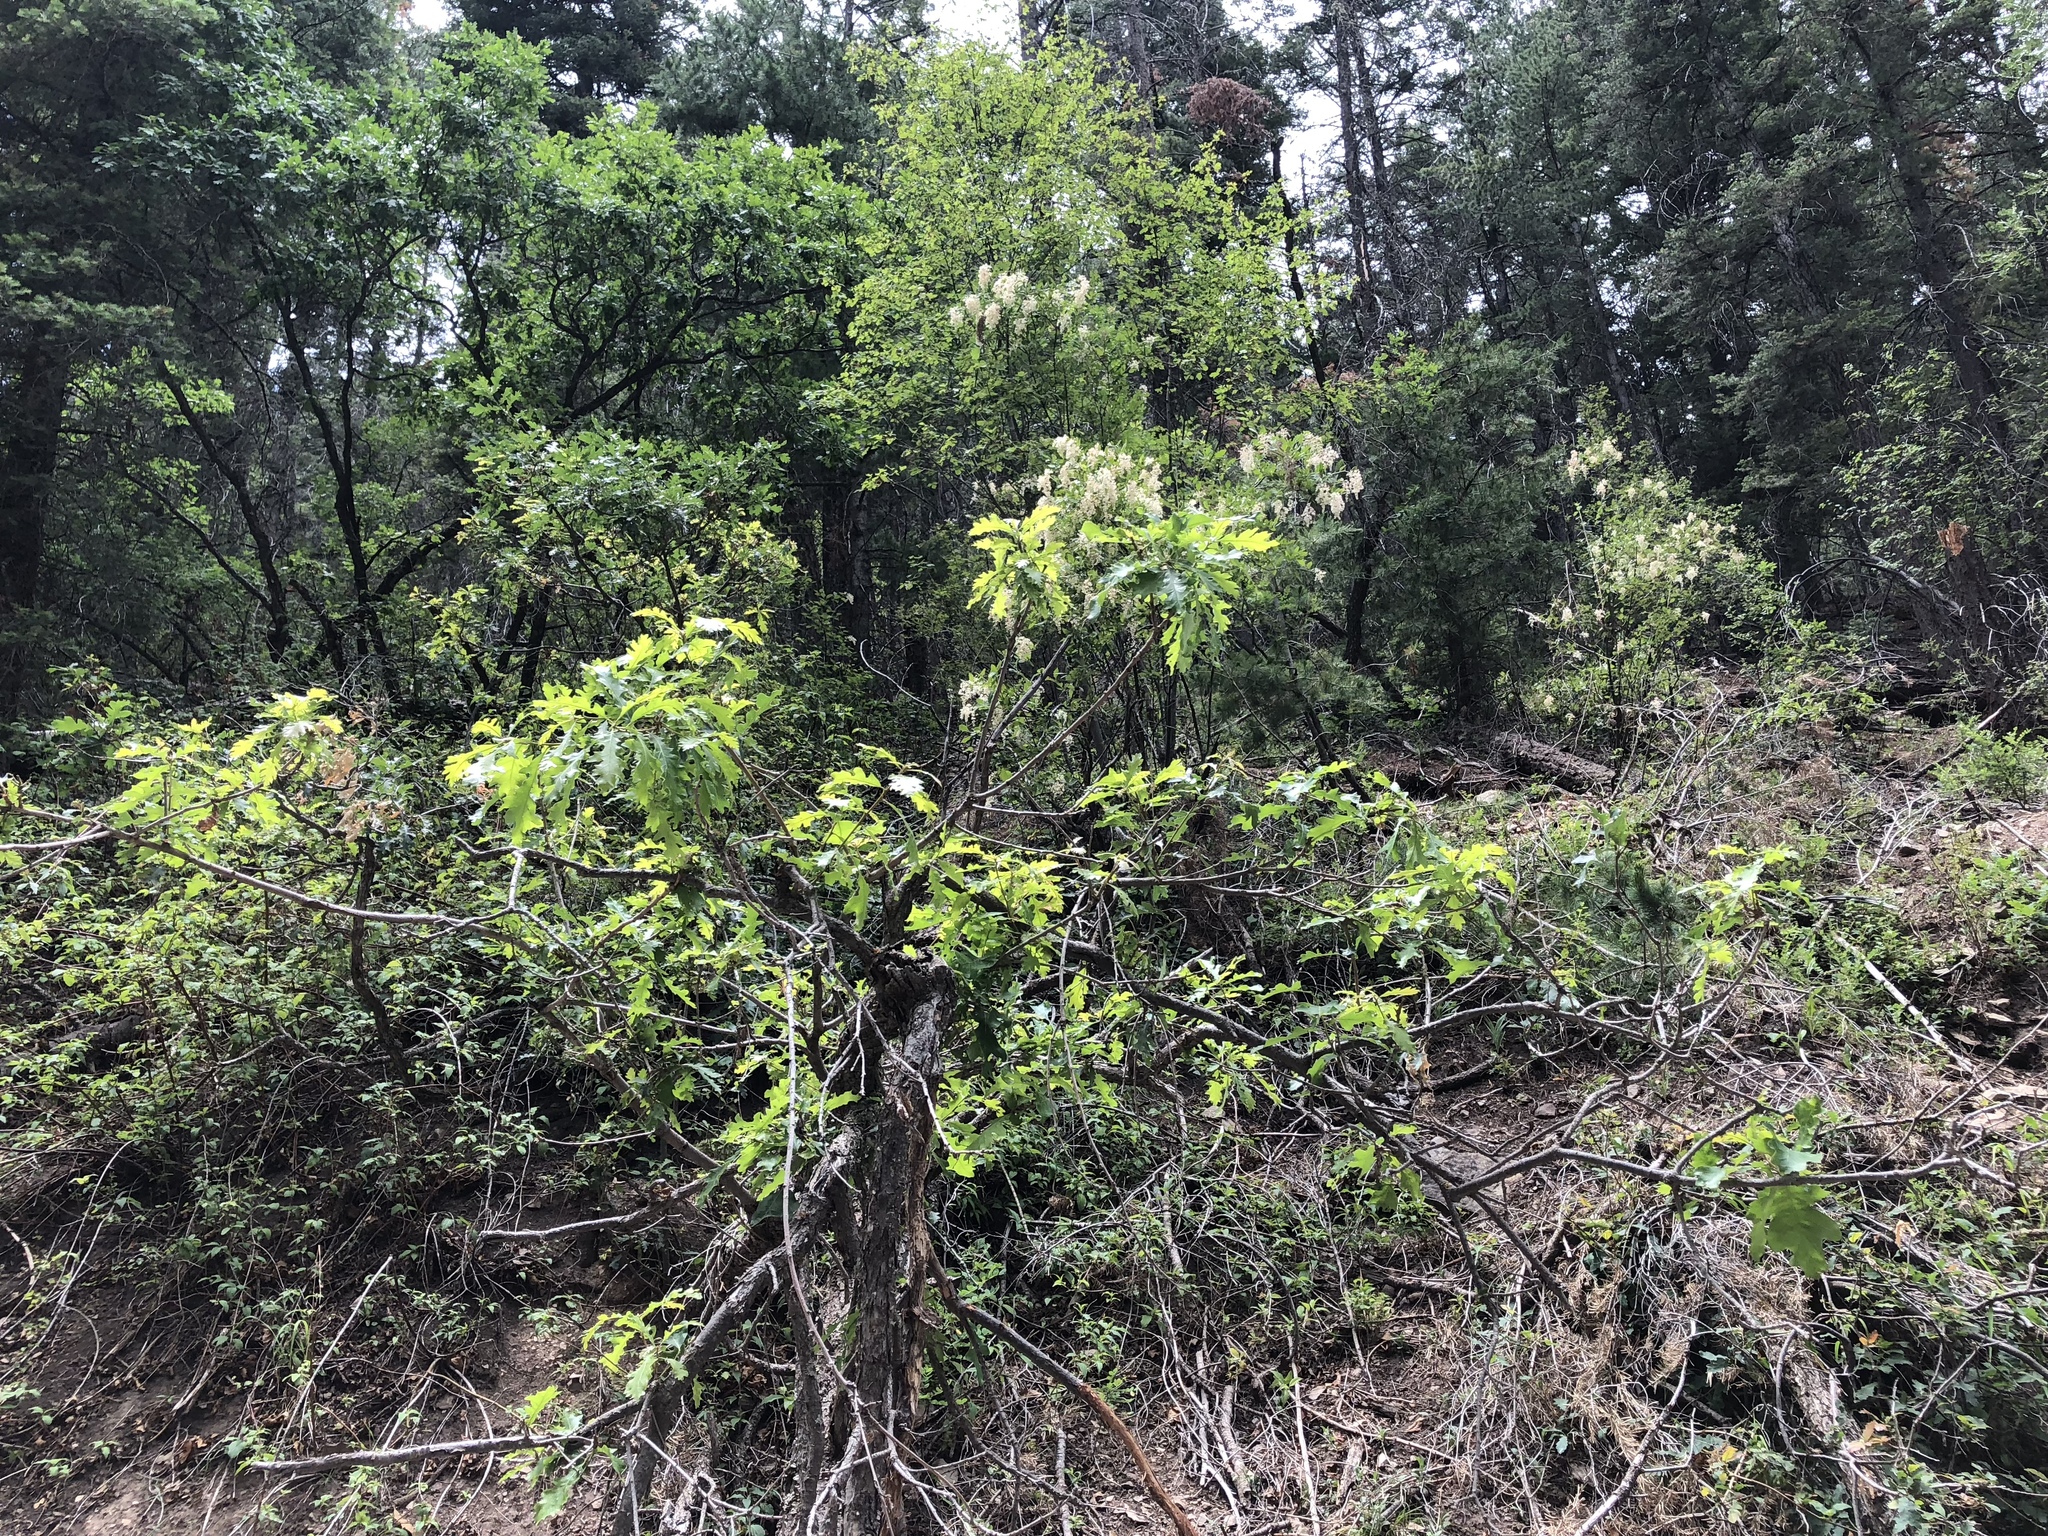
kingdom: Plantae
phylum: Tracheophyta
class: Magnoliopsida
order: Fagales
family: Fagaceae
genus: Quercus
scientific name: Quercus gambelii
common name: Gambel oak
